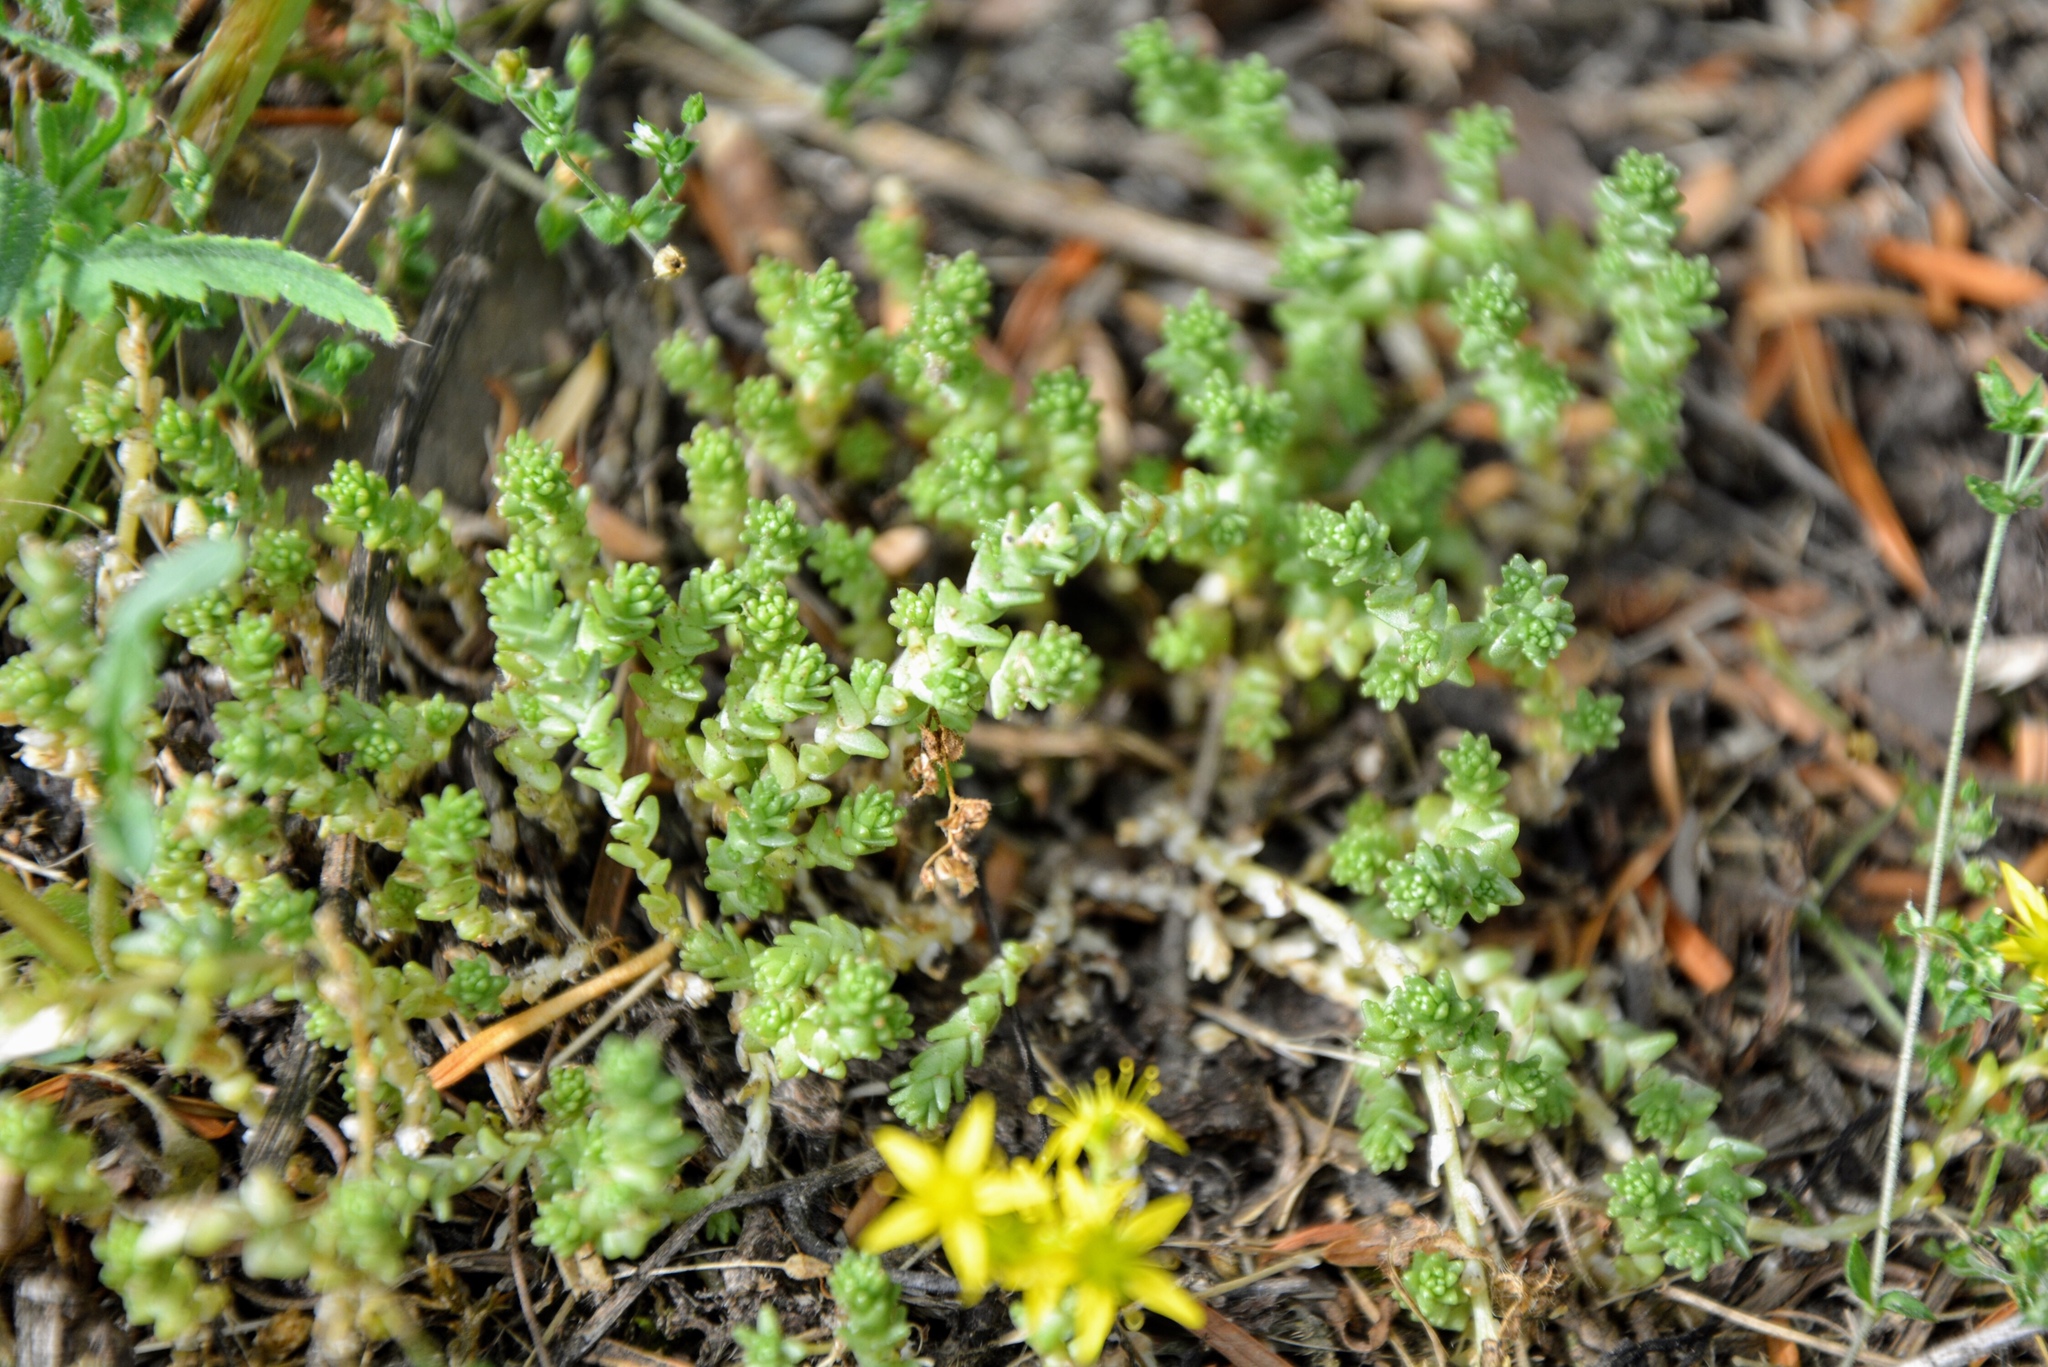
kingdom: Plantae
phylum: Tracheophyta
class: Magnoliopsida
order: Saxifragales
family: Crassulaceae
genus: Sedum
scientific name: Sedum acre
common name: Biting stonecrop
